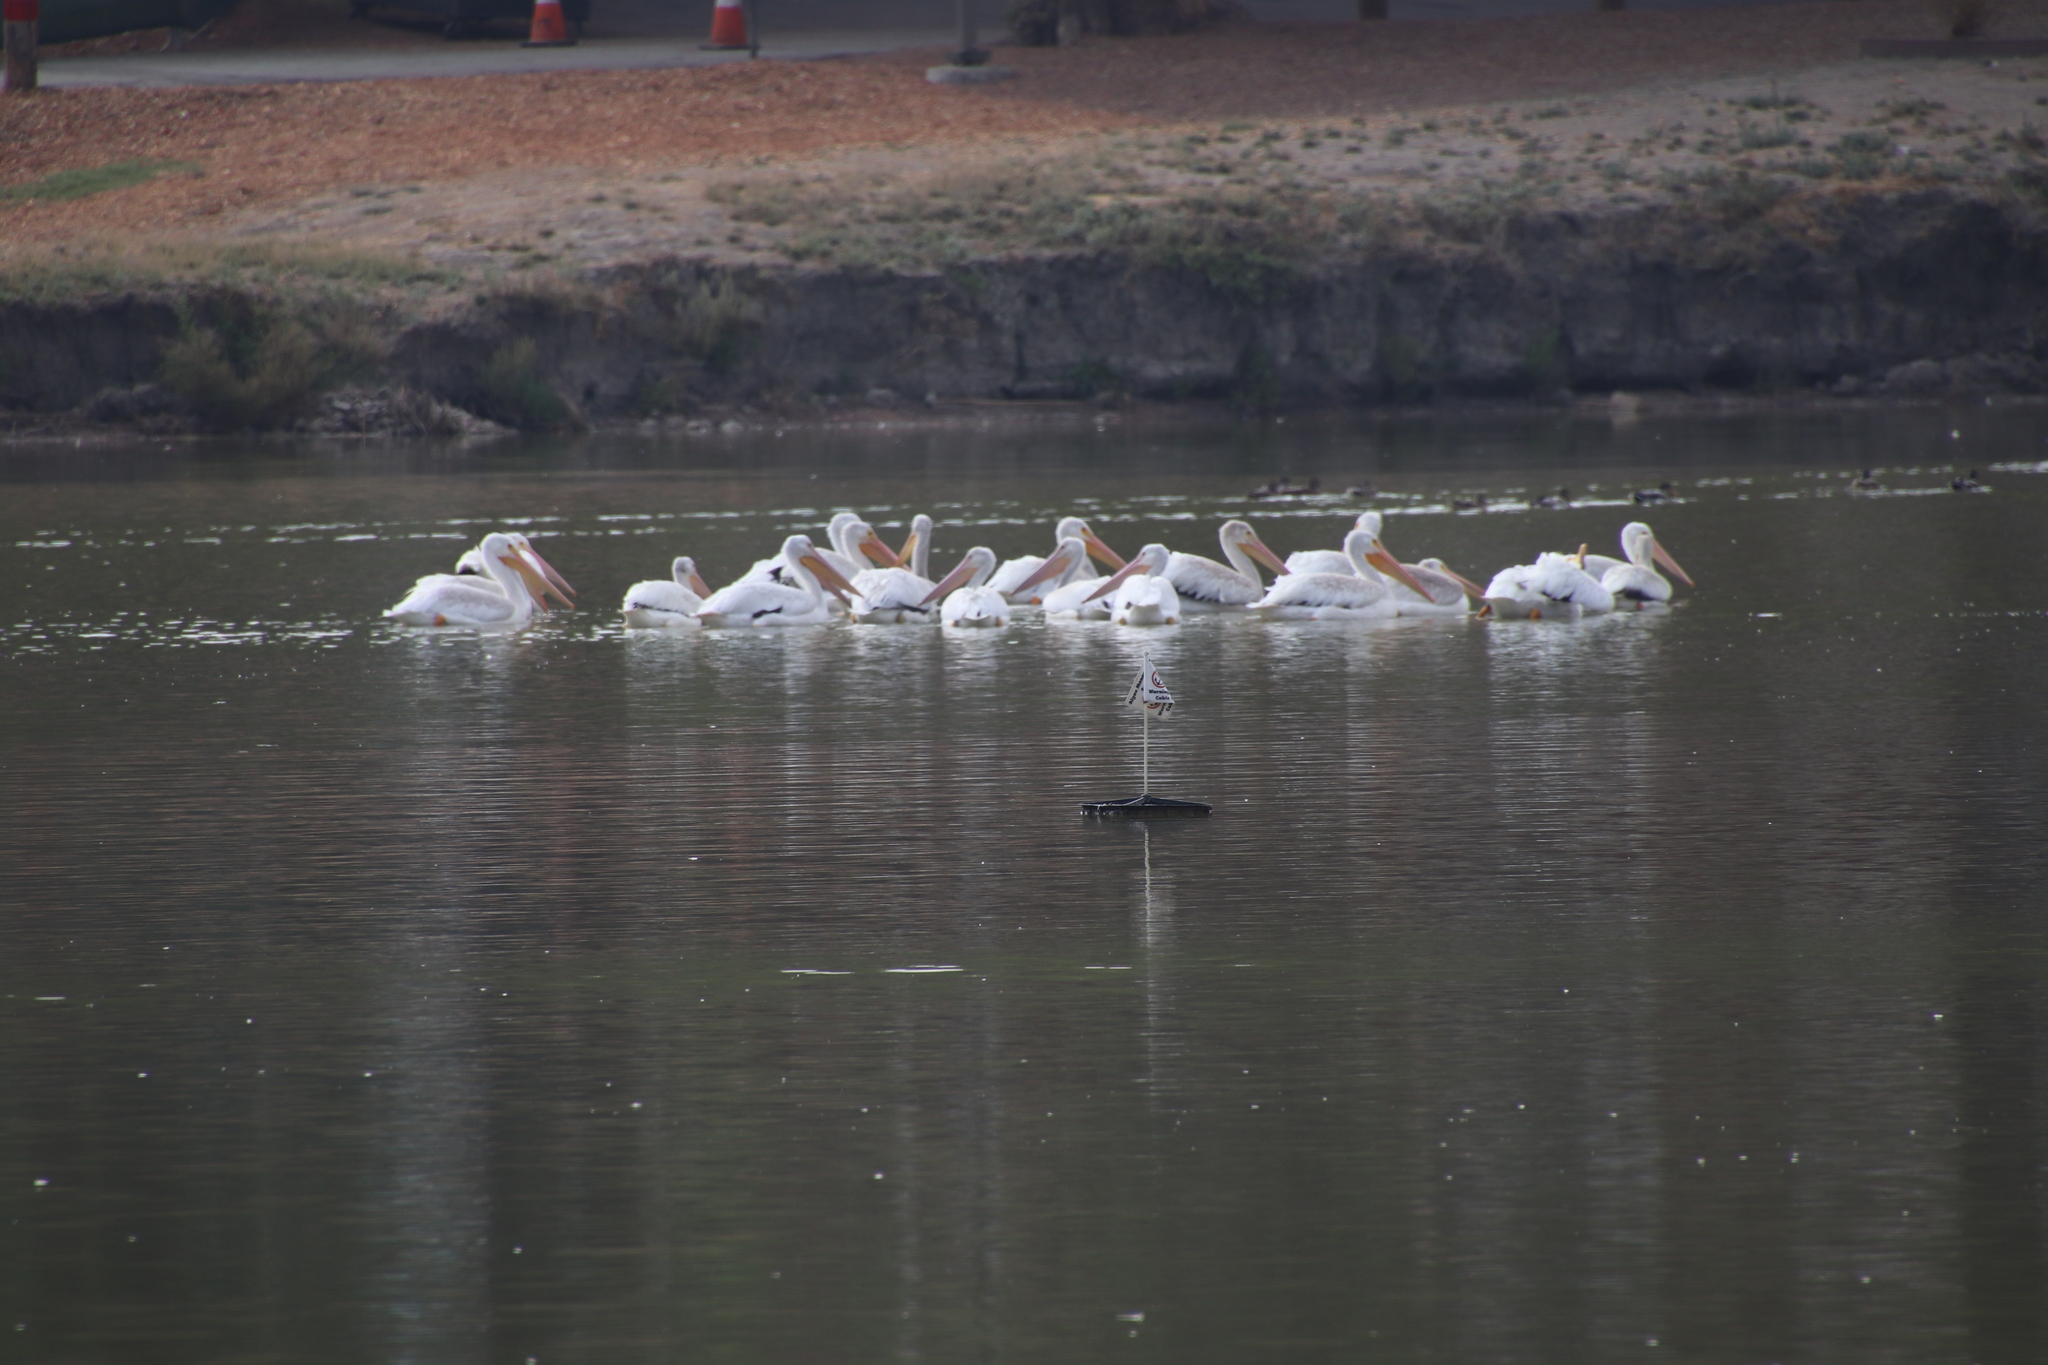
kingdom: Animalia
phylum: Chordata
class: Aves
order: Pelecaniformes
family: Pelecanidae
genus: Pelecanus
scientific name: Pelecanus erythrorhynchos
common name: American white pelican
